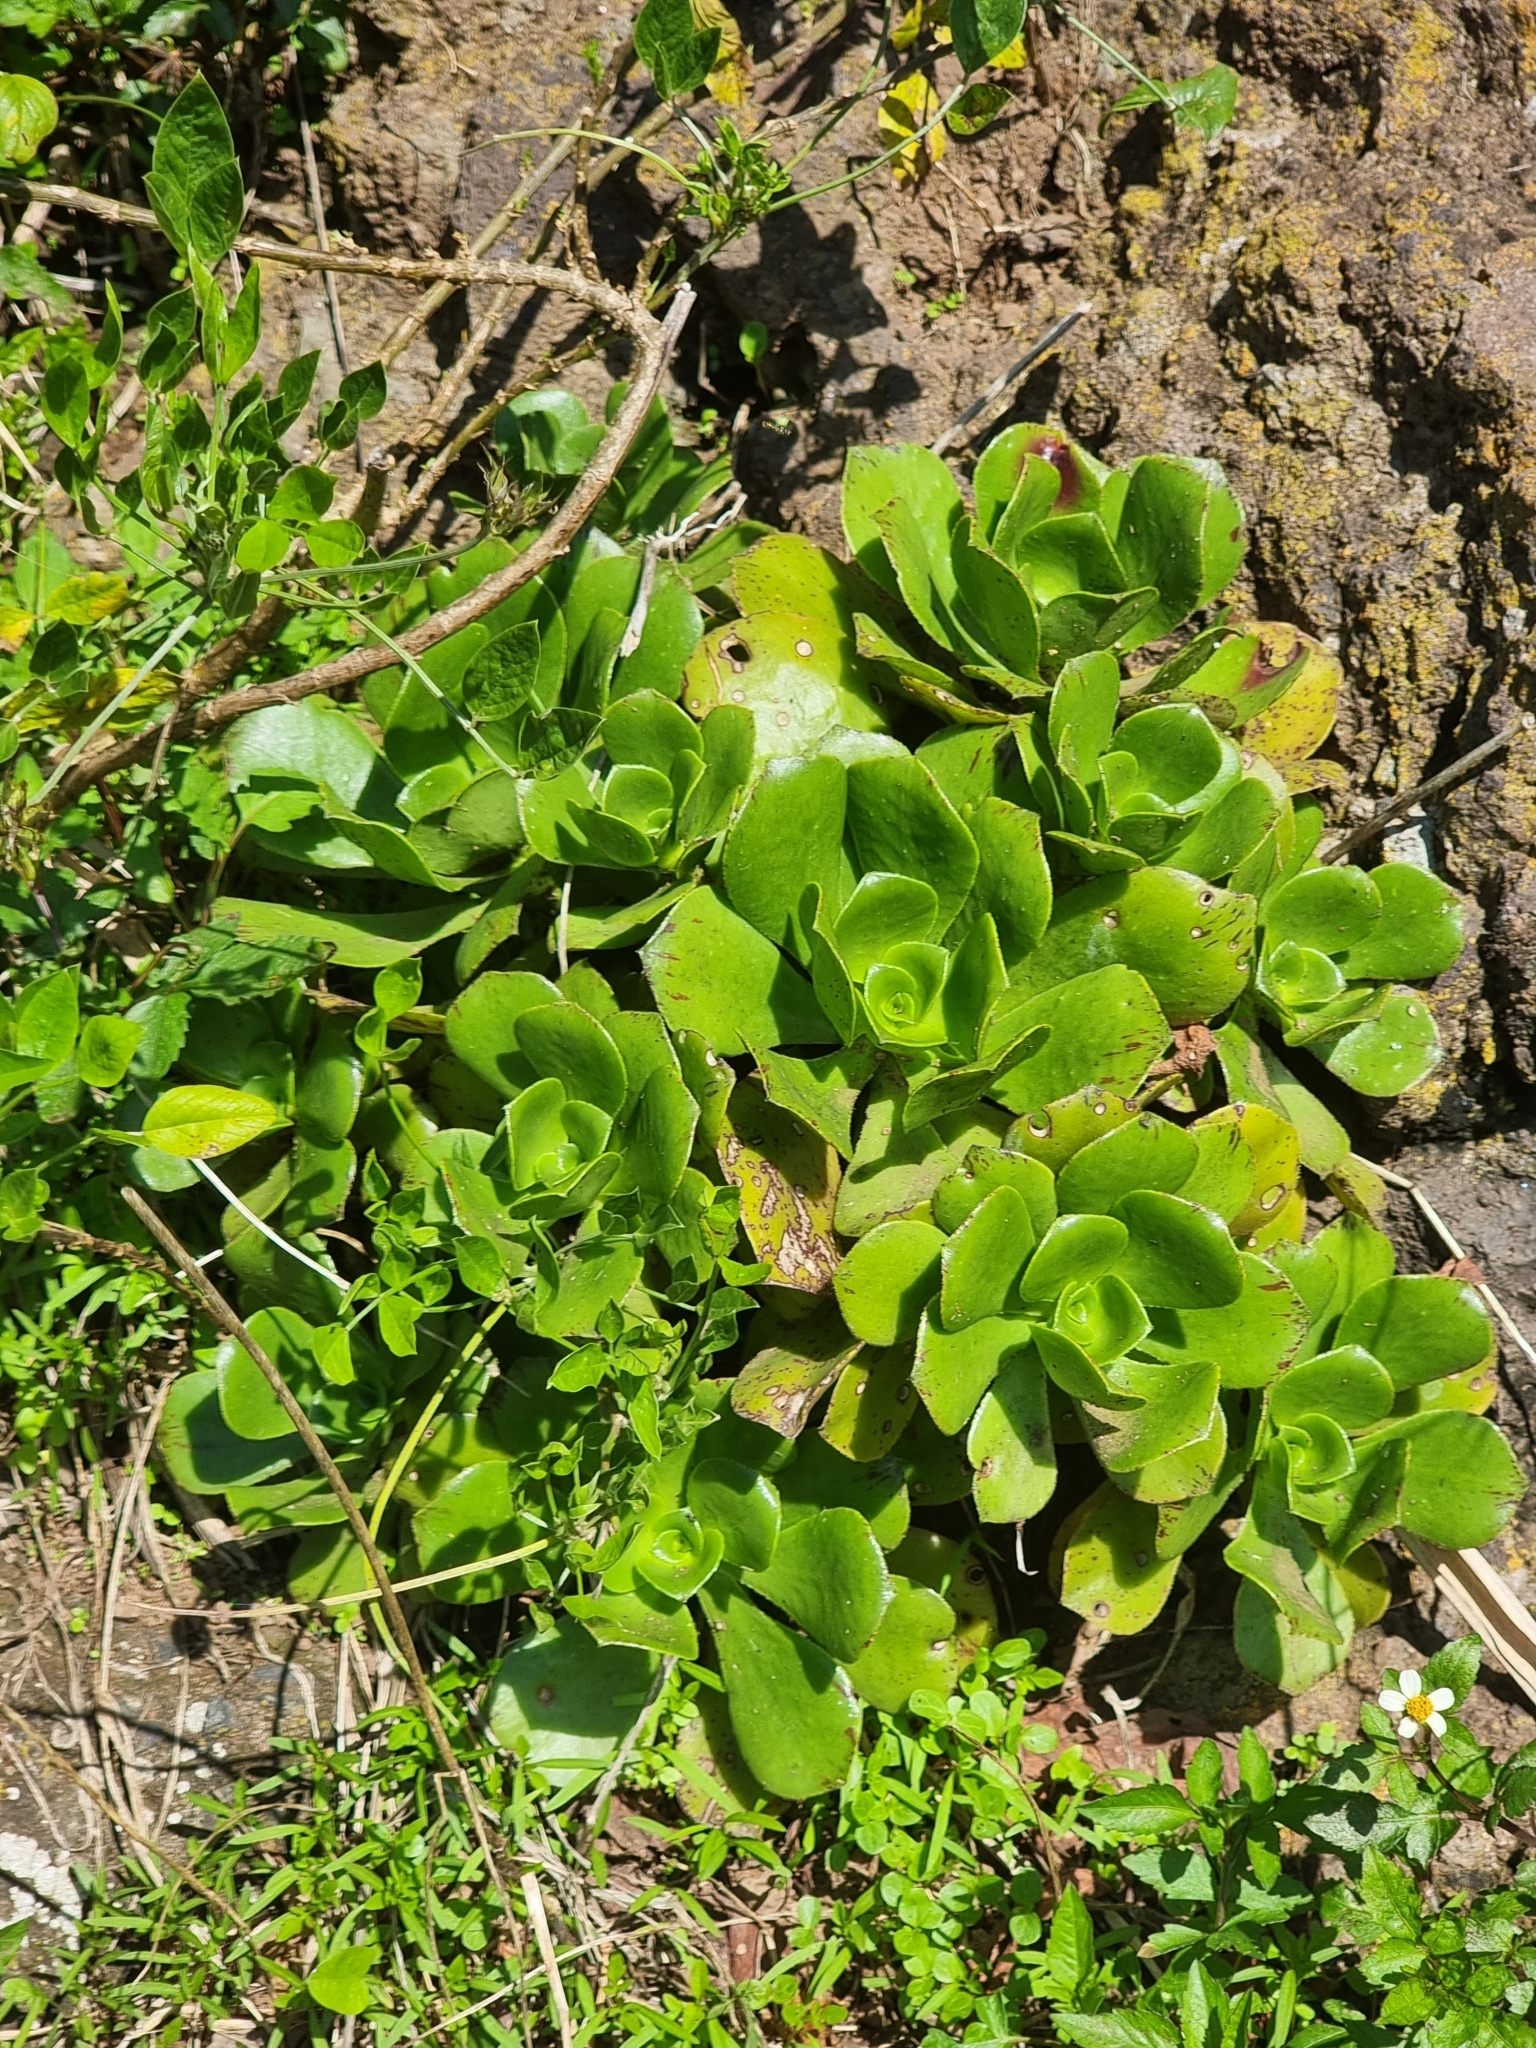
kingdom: Plantae
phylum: Tracheophyta
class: Magnoliopsida
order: Saxifragales
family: Crassulaceae
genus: Aeonium
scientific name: Aeonium glutinosum
